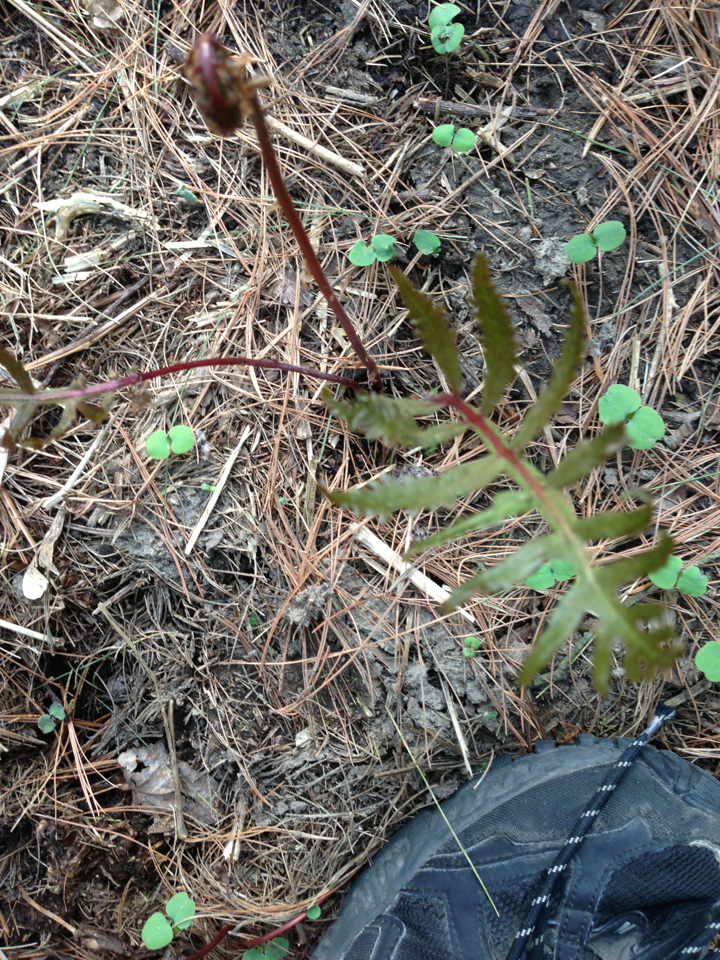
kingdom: Plantae
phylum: Tracheophyta
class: Polypodiopsida
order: Polypodiales
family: Onocleaceae
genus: Onoclea
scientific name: Onoclea sensibilis
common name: Sensitive fern
